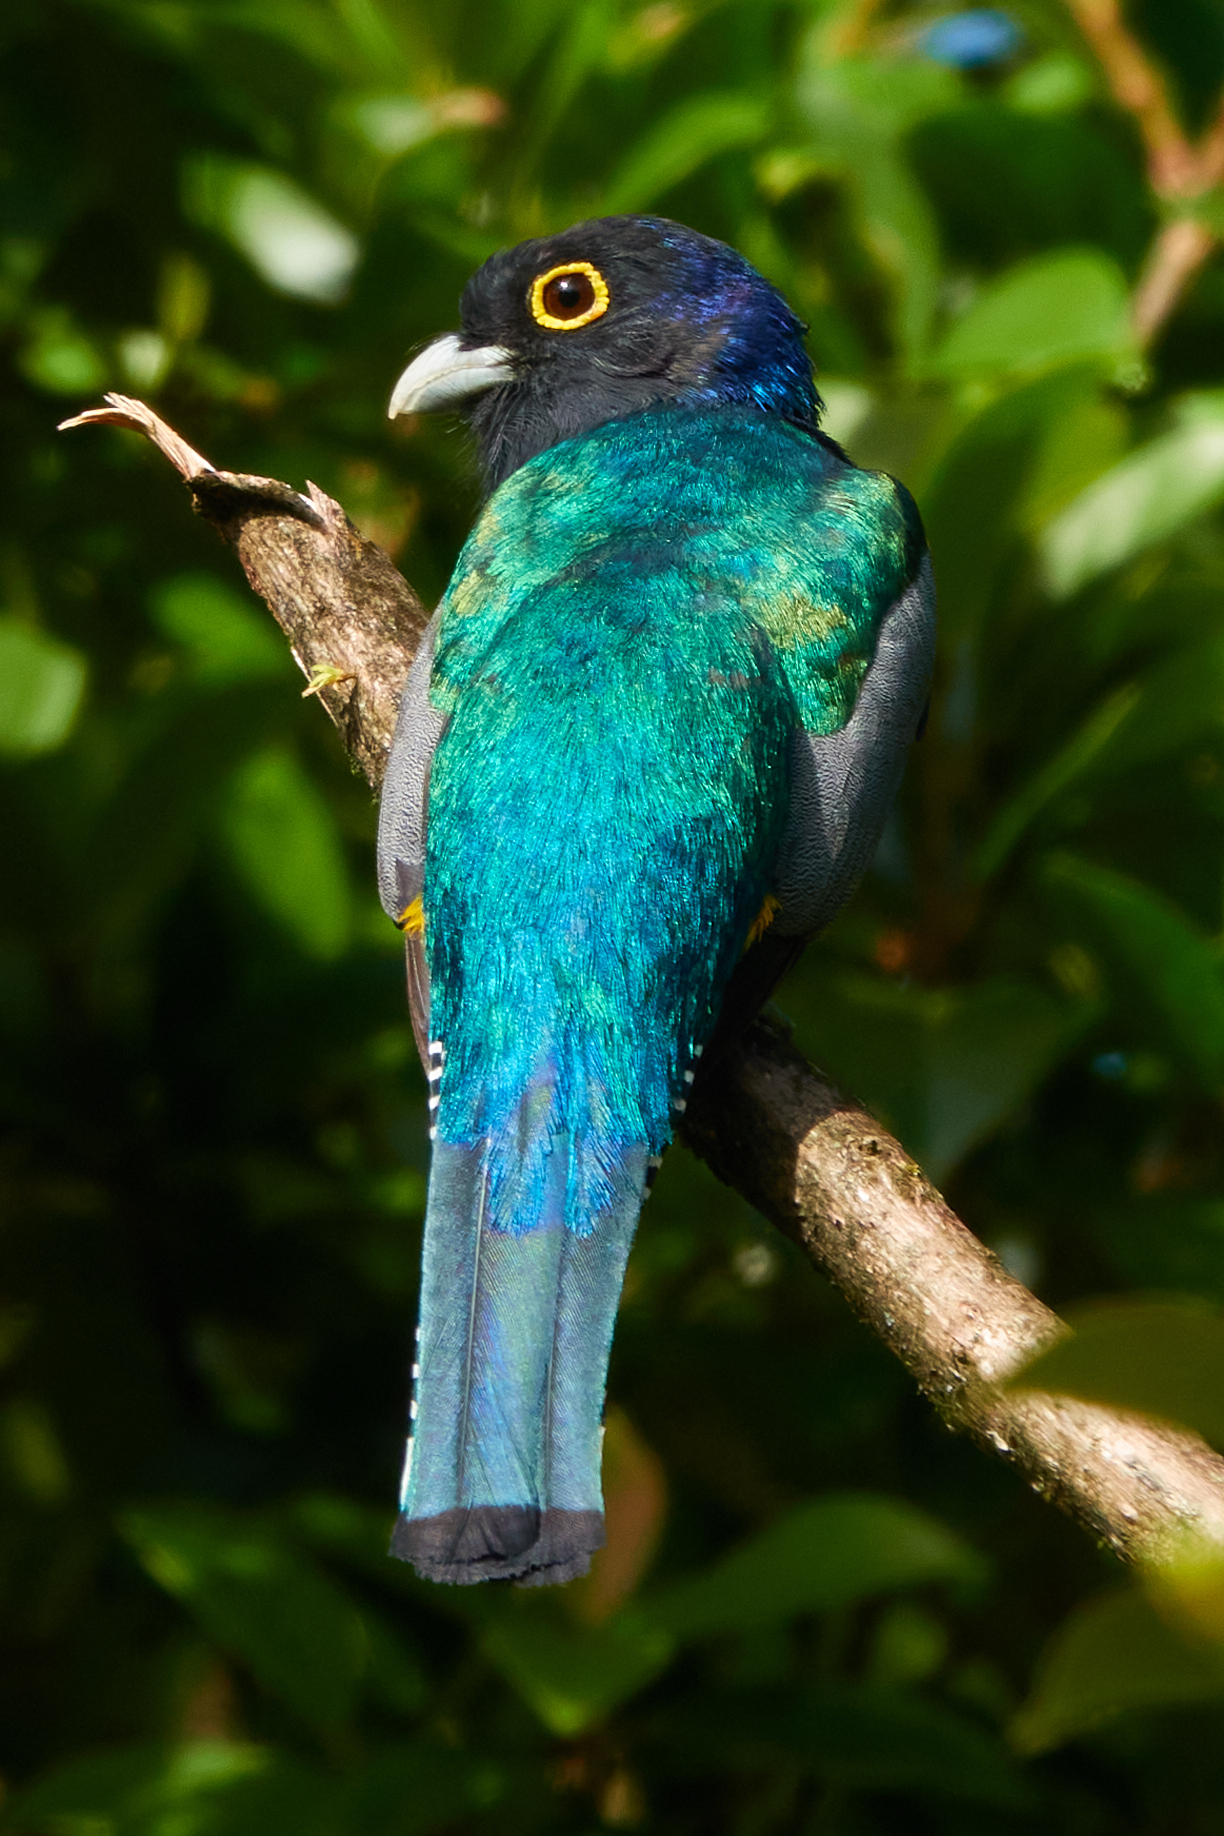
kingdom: Animalia
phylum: Chordata
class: Aves
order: Trogoniformes
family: Trogonidae
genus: Trogon
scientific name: Trogon caligatus
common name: Gartered trogon
